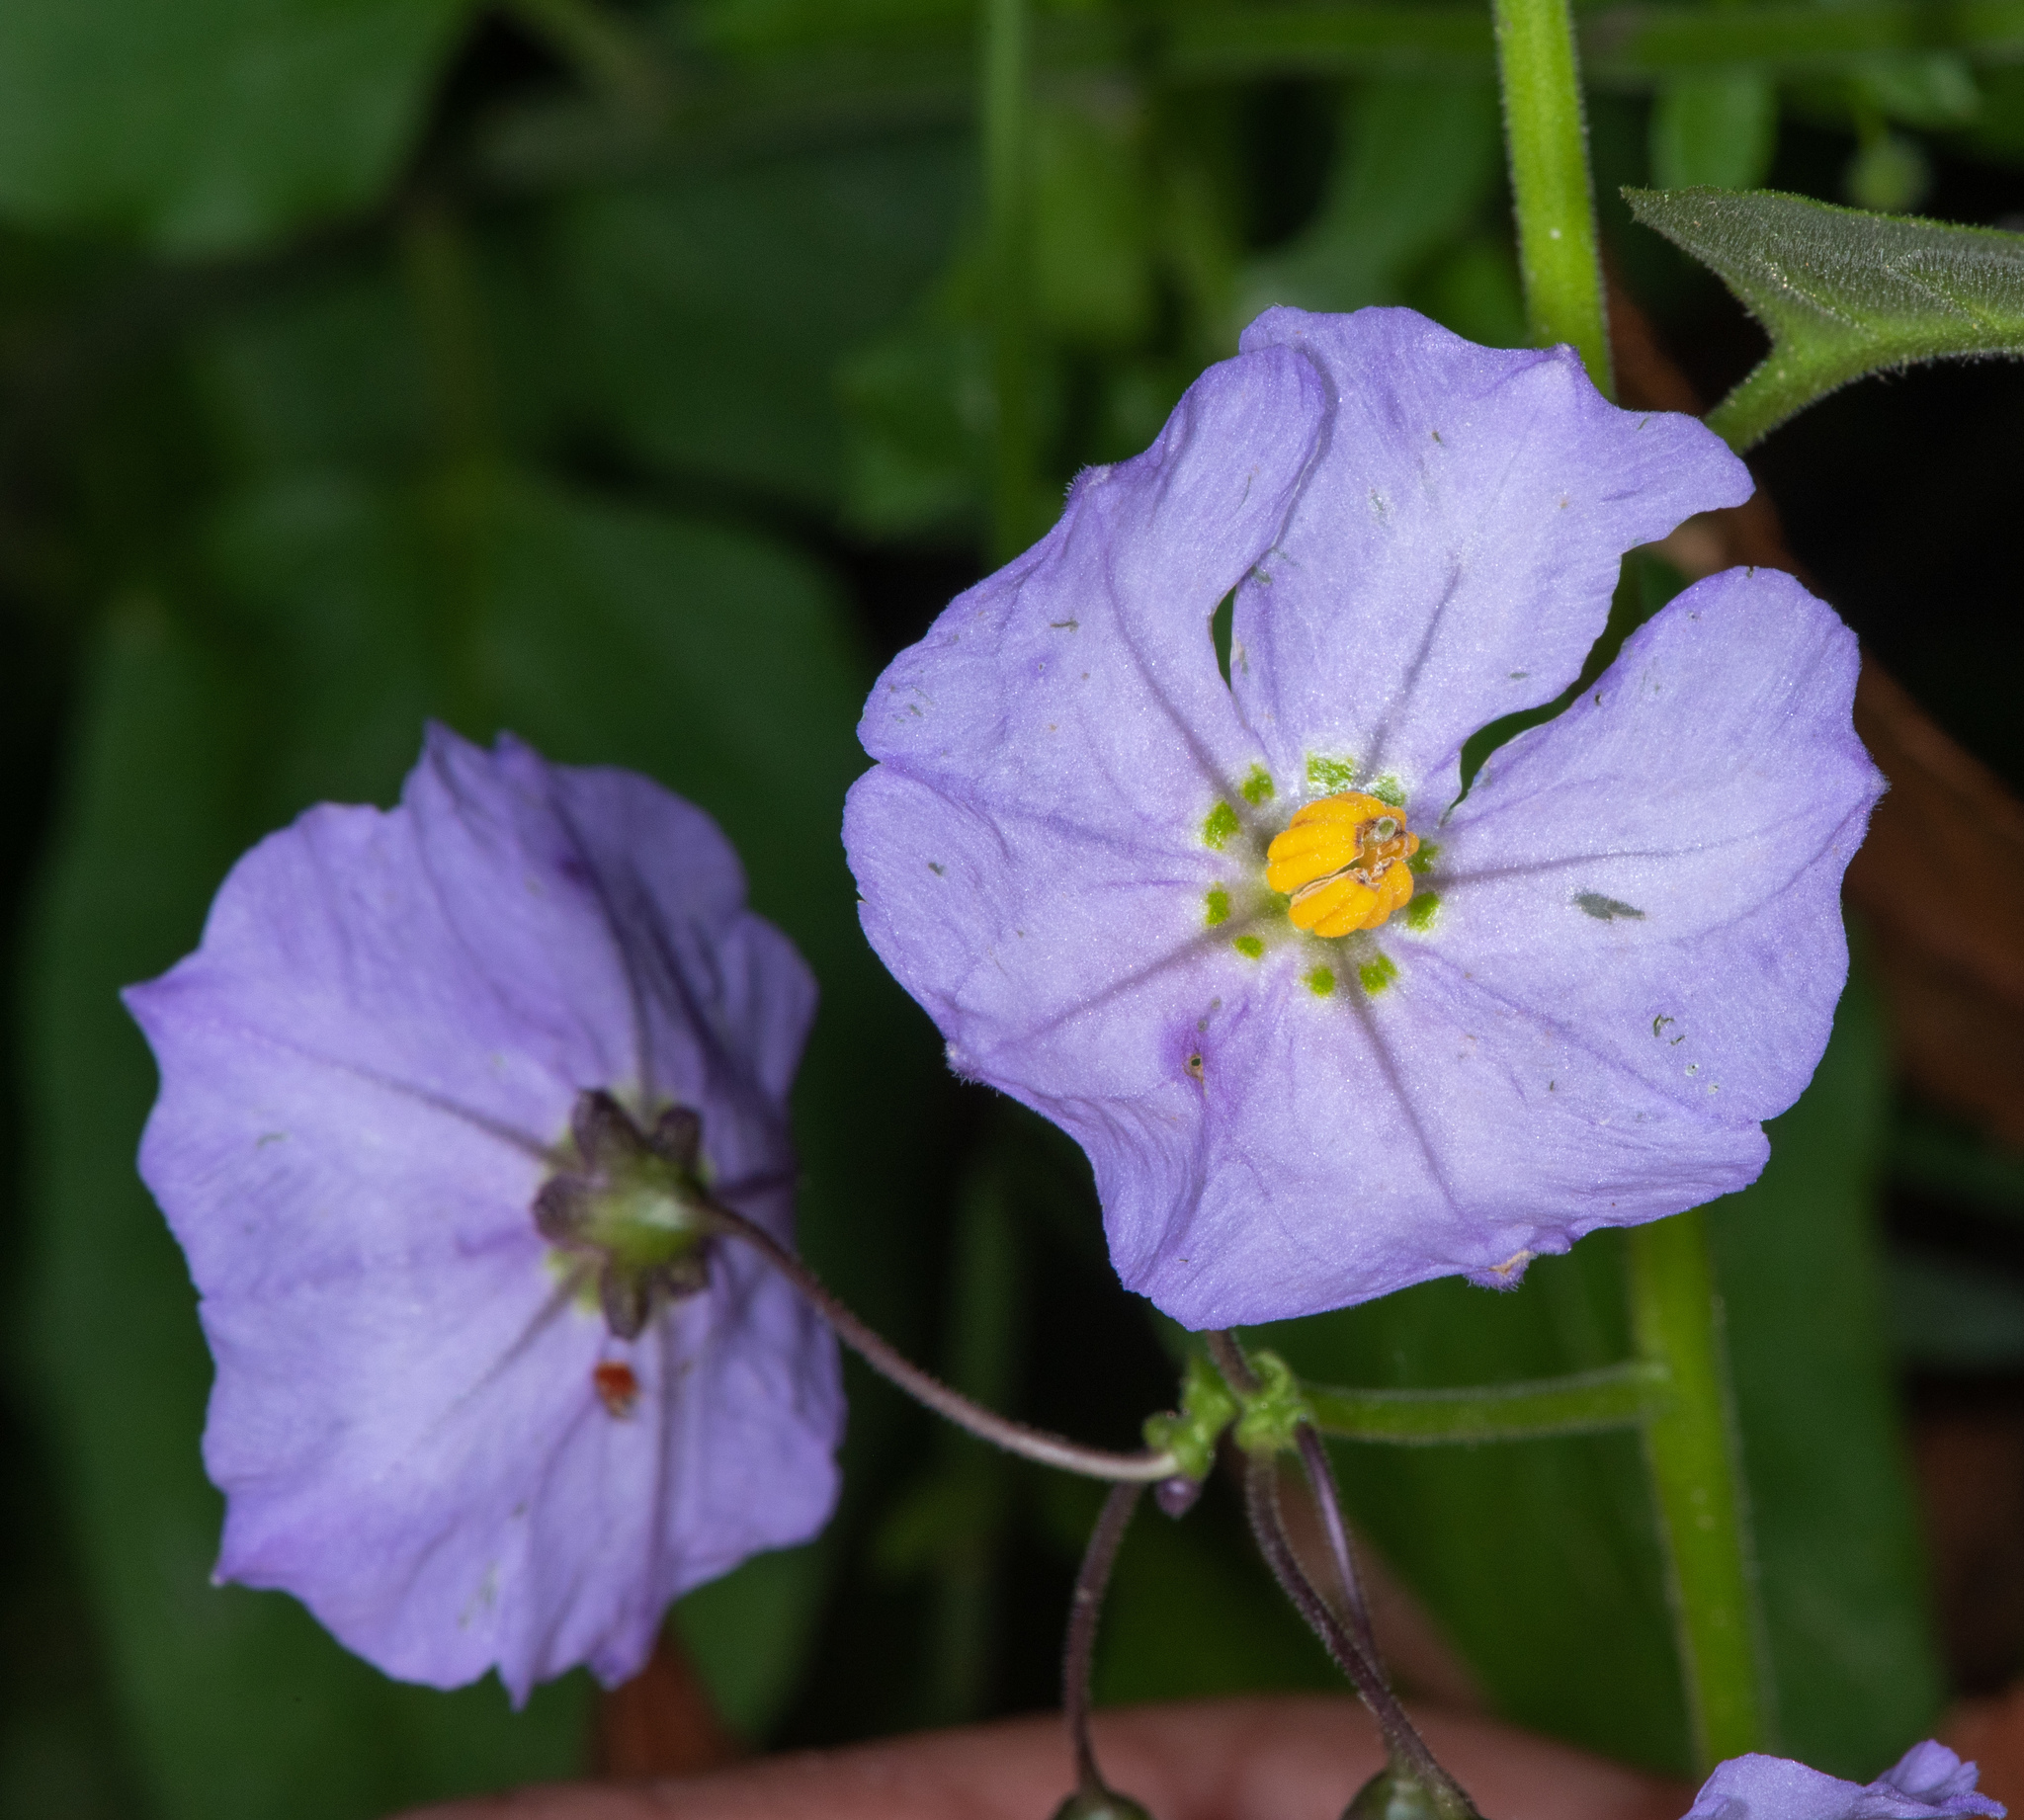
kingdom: Plantae
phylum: Tracheophyta
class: Magnoliopsida
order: Solanales
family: Solanaceae
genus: Solanum
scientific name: Solanum umbelliferum
